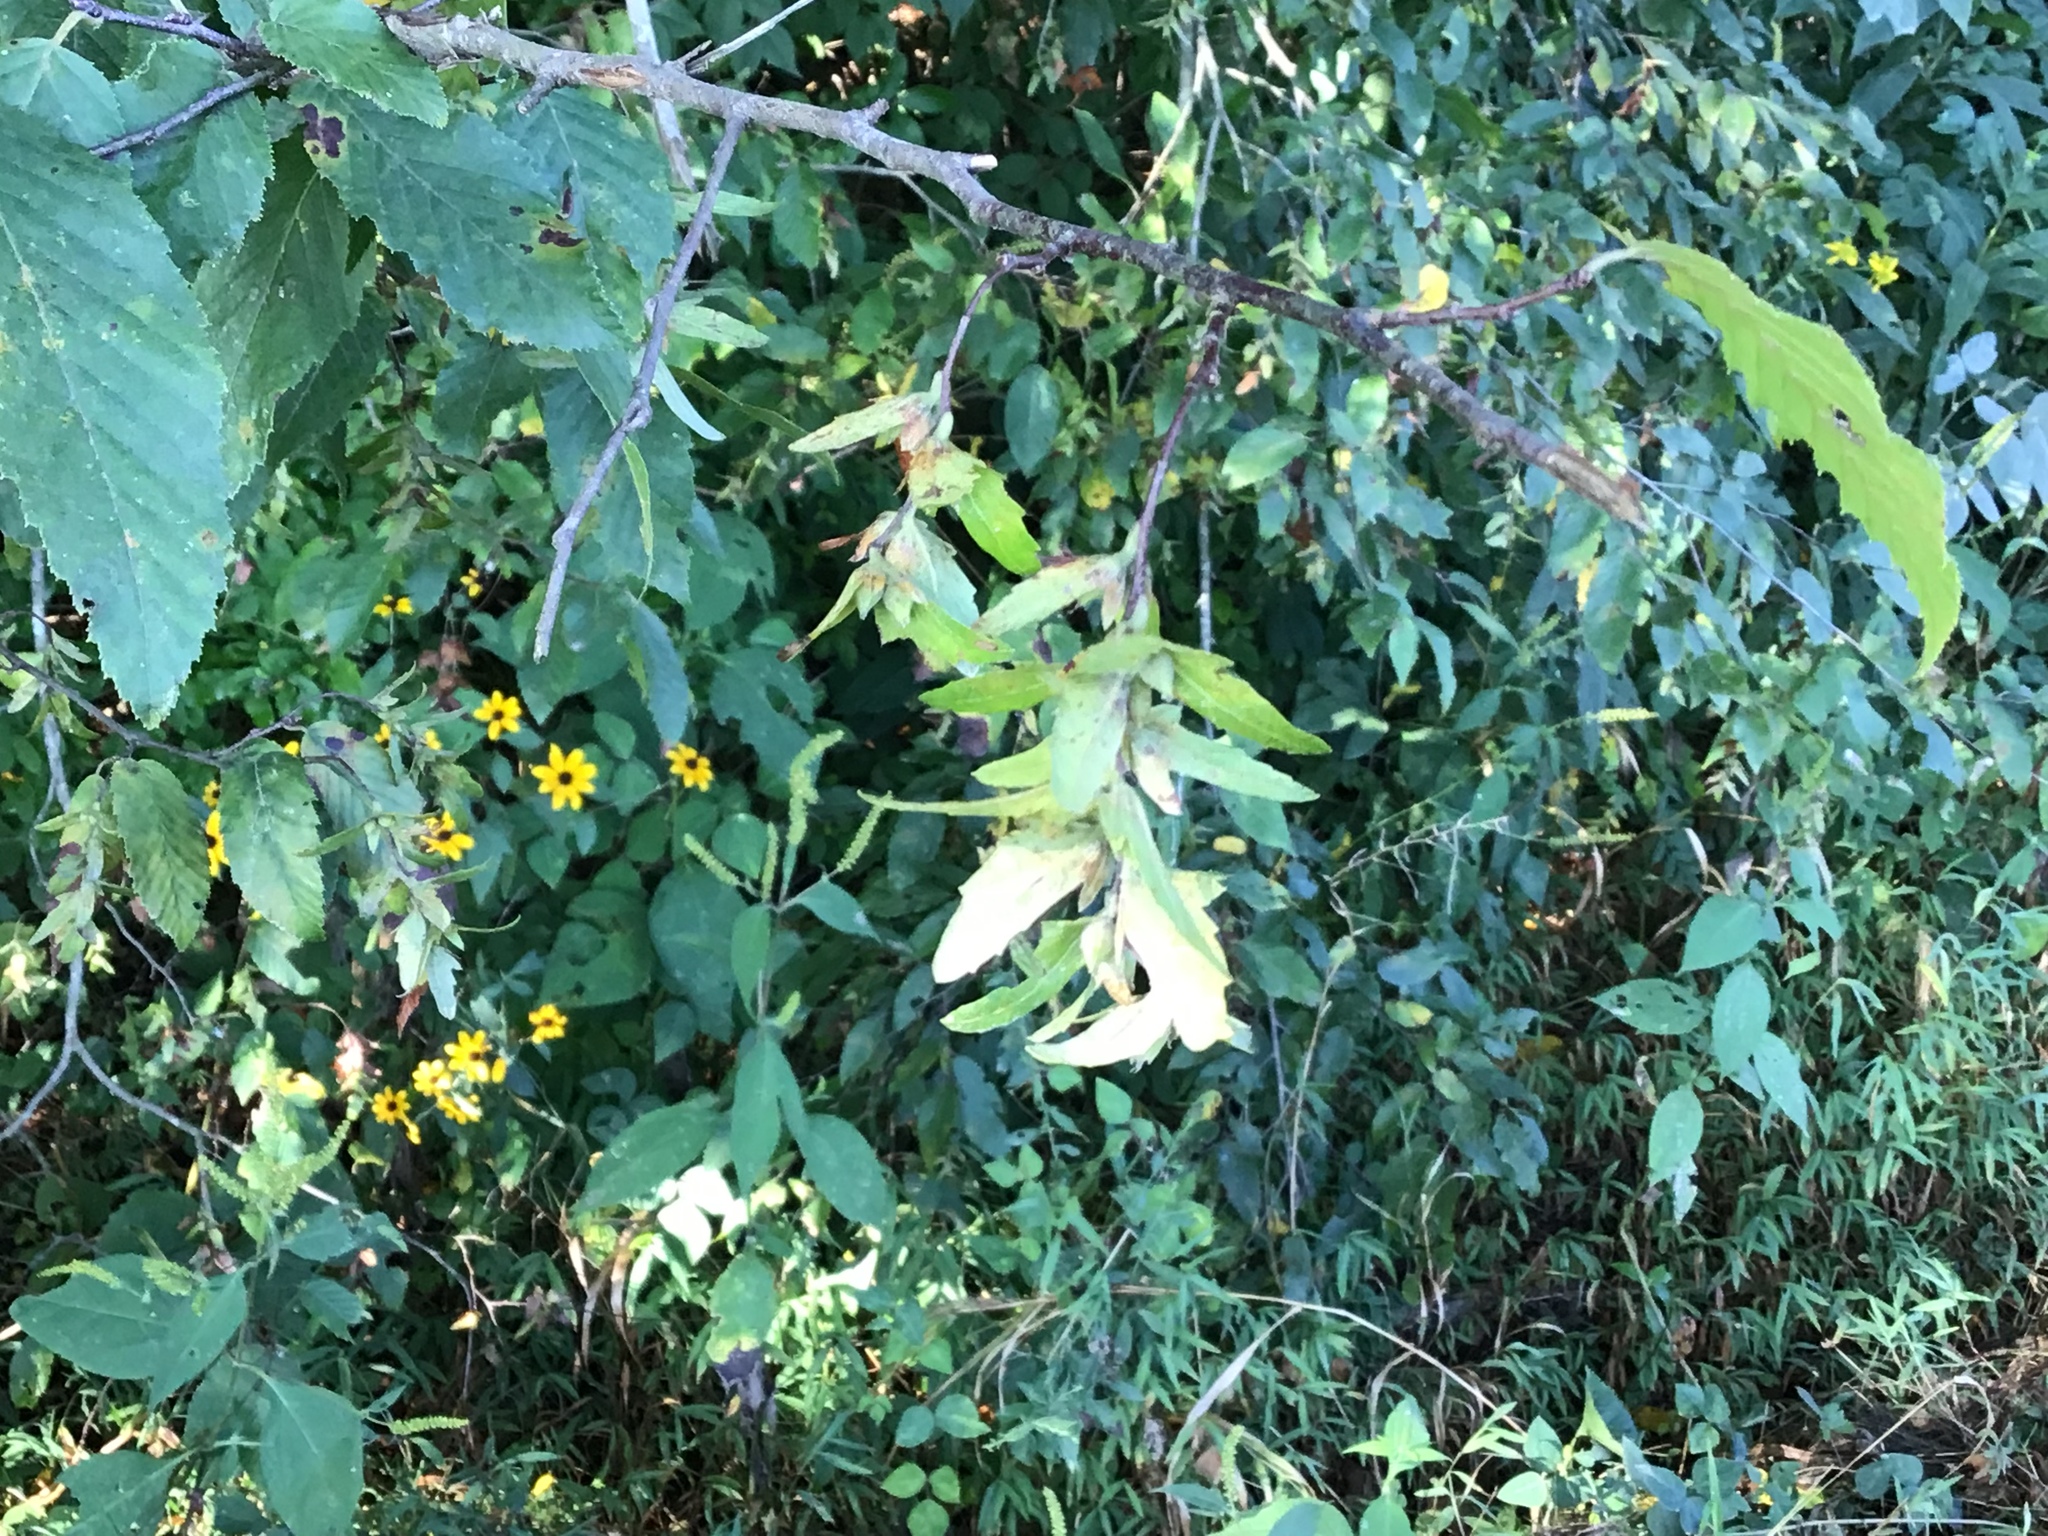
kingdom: Plantae
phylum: Tracheophyta
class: Magnoliopsida
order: Fagales
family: Betulaceae
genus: Carpinus
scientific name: Carpinus caroliniana
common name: American hornbeam
